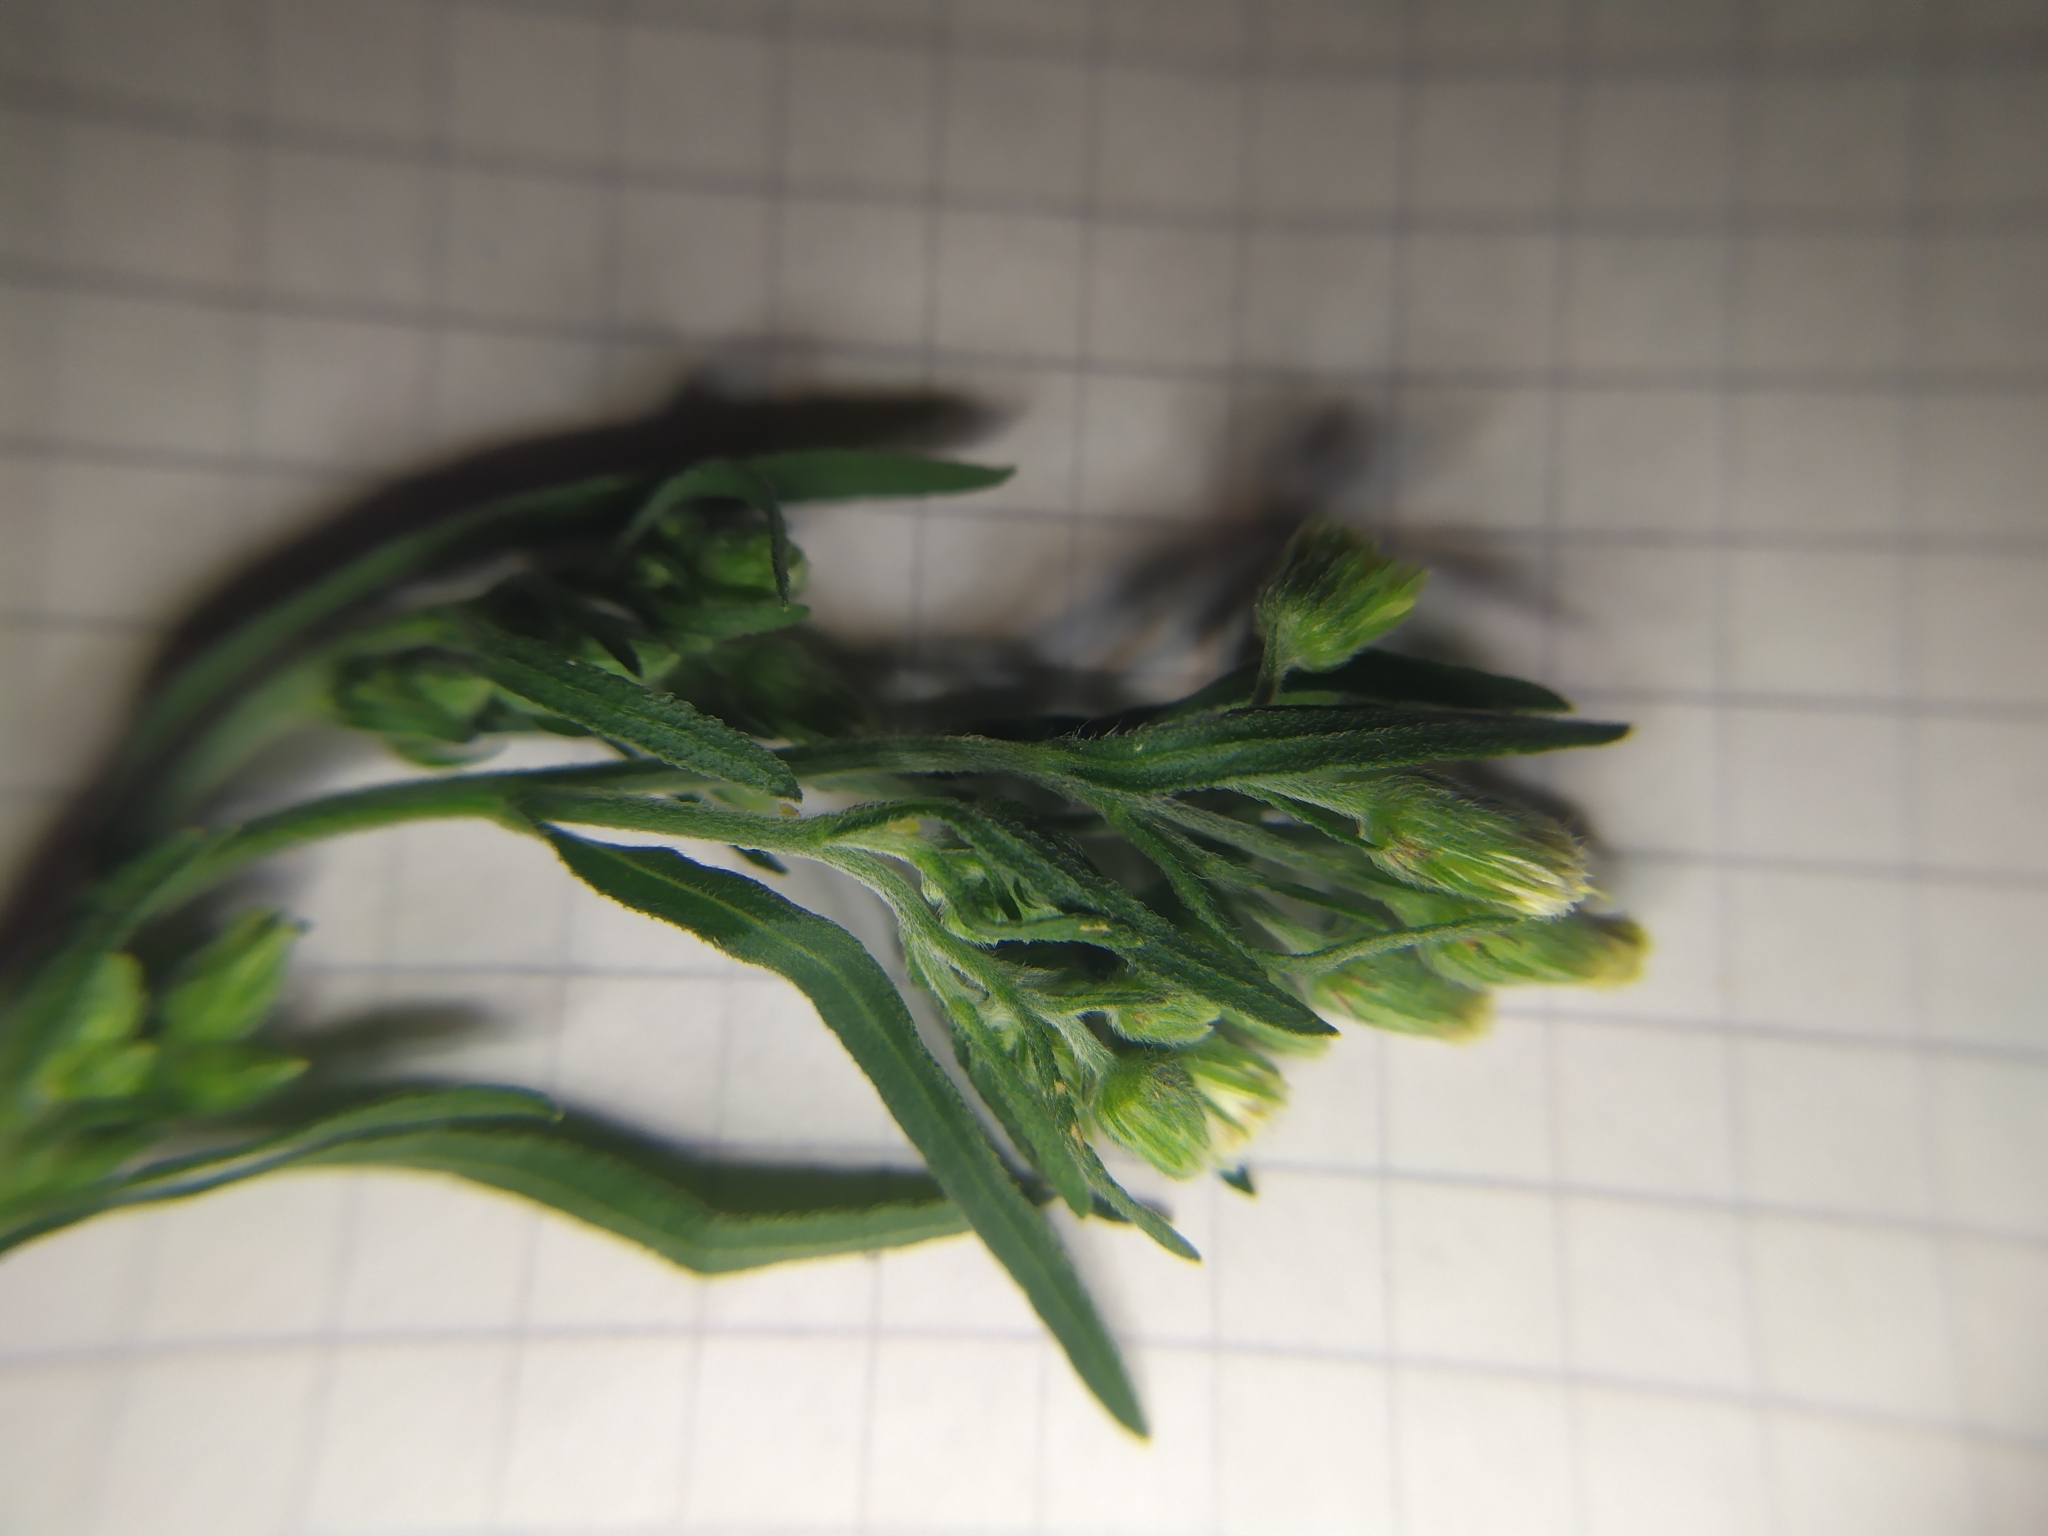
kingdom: Plantae
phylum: Tracheophyta
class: Magnoliopsida
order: Asterales
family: Asteraceae
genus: Erigeron
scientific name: Erigeron sumatrensis
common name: Daisy
